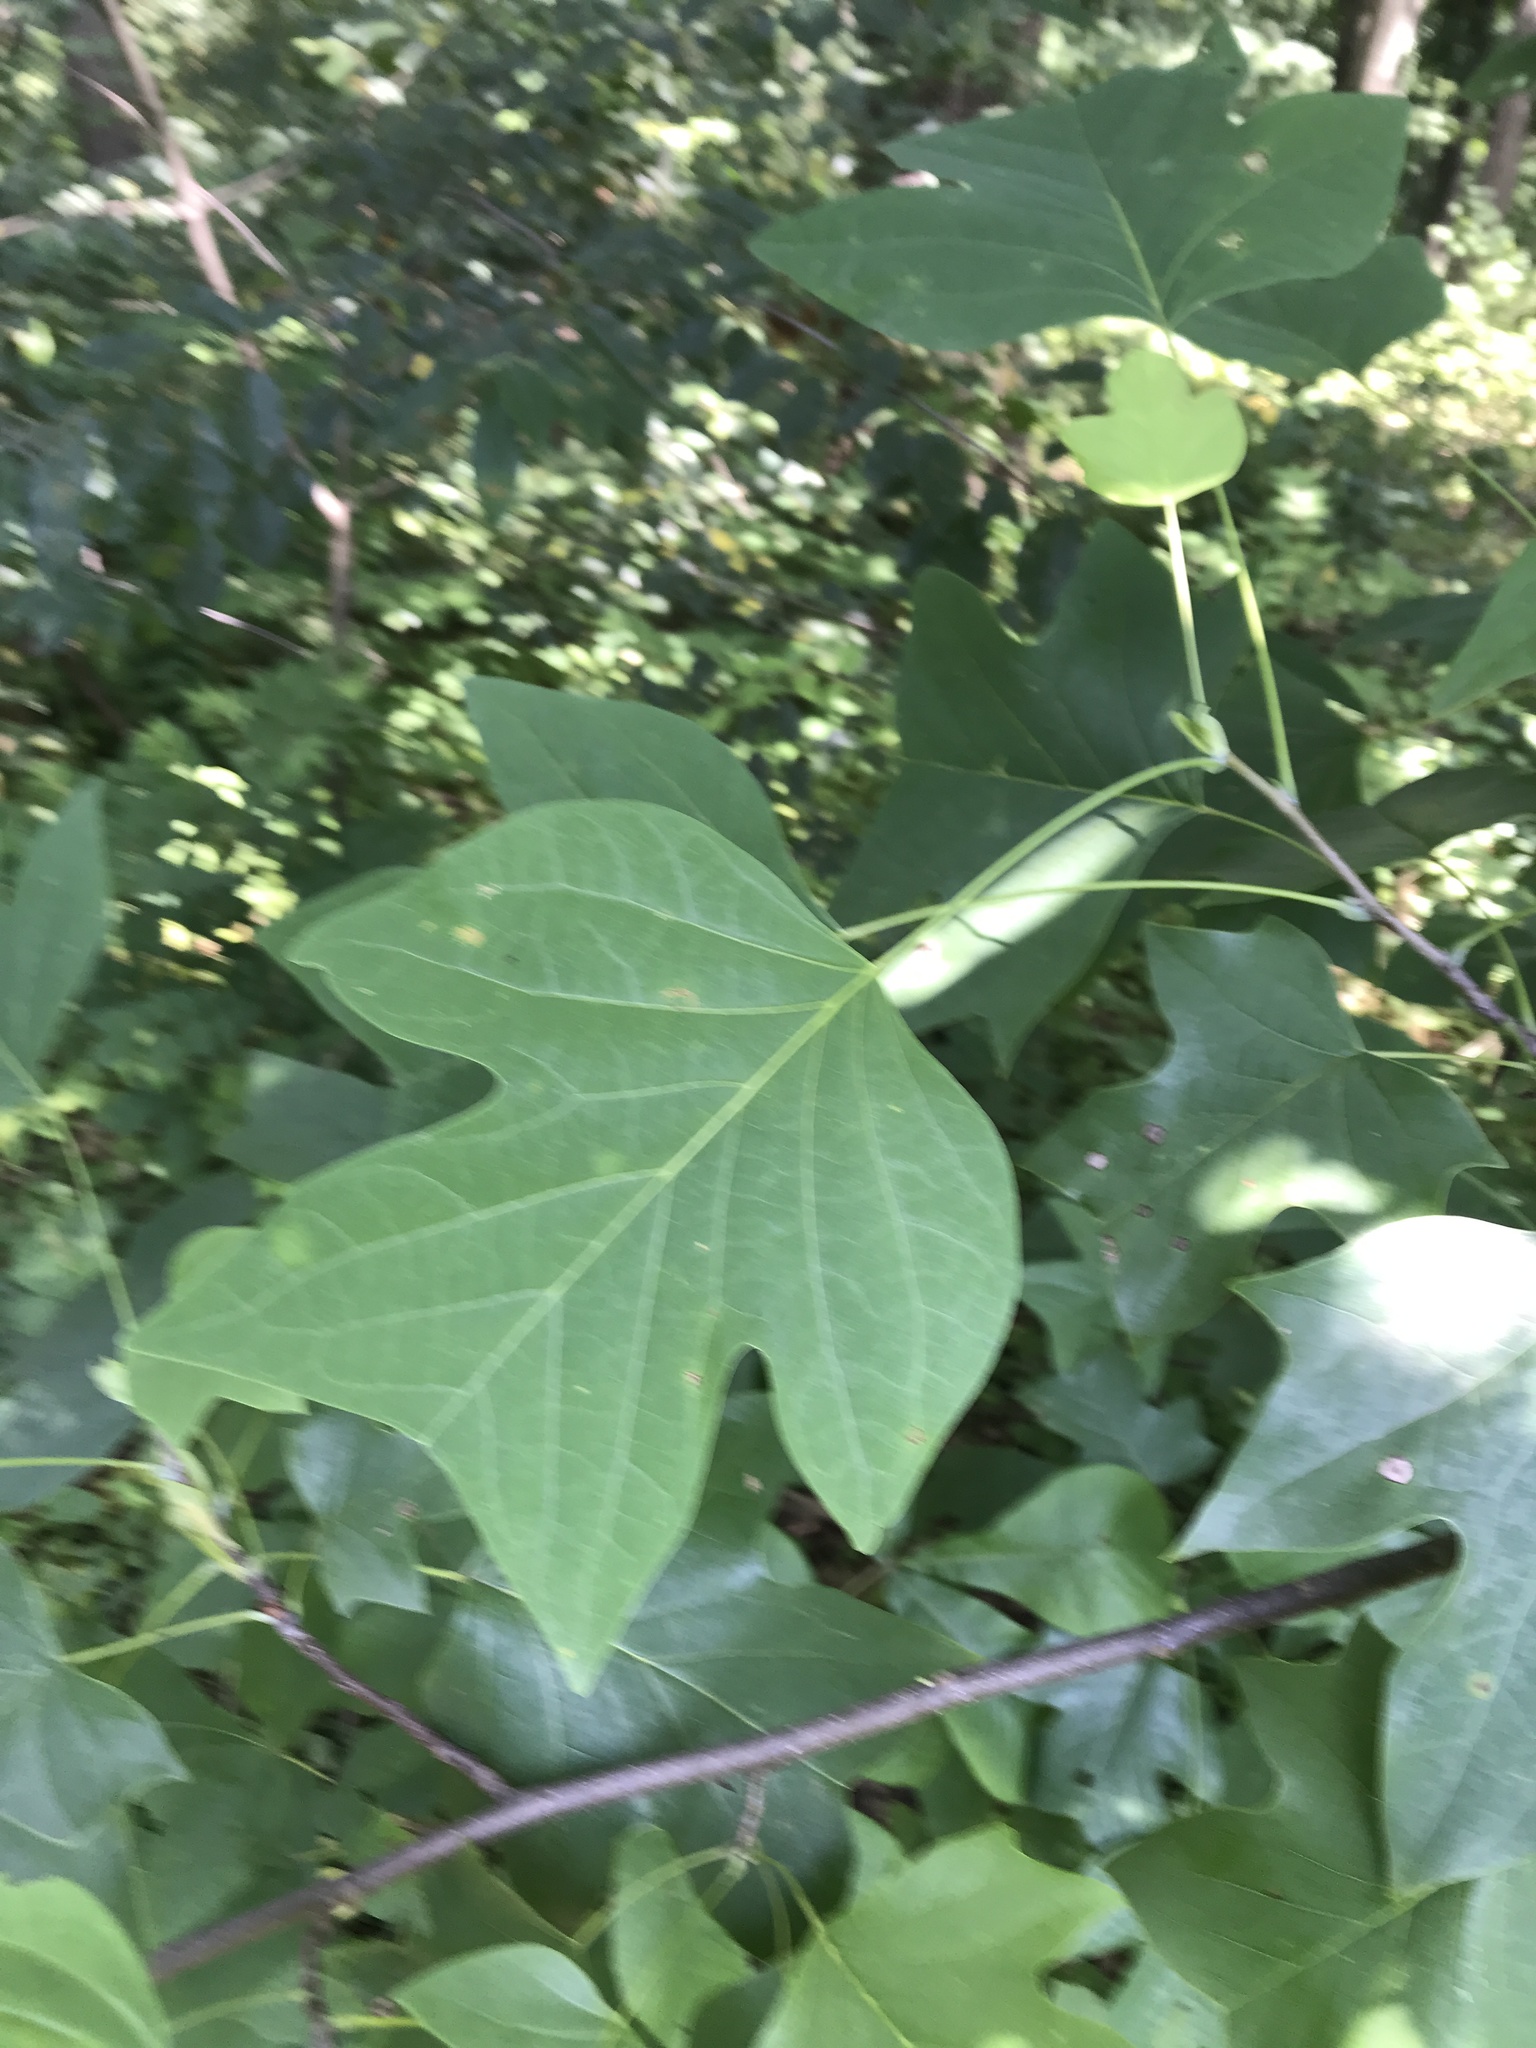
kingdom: Plantae
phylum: Tracheophyta
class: Magnoliopsida
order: Magnoliales
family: Magnoliaceae
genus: Liriodendron
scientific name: Liriodendron tulipifera
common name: Tulip tree
